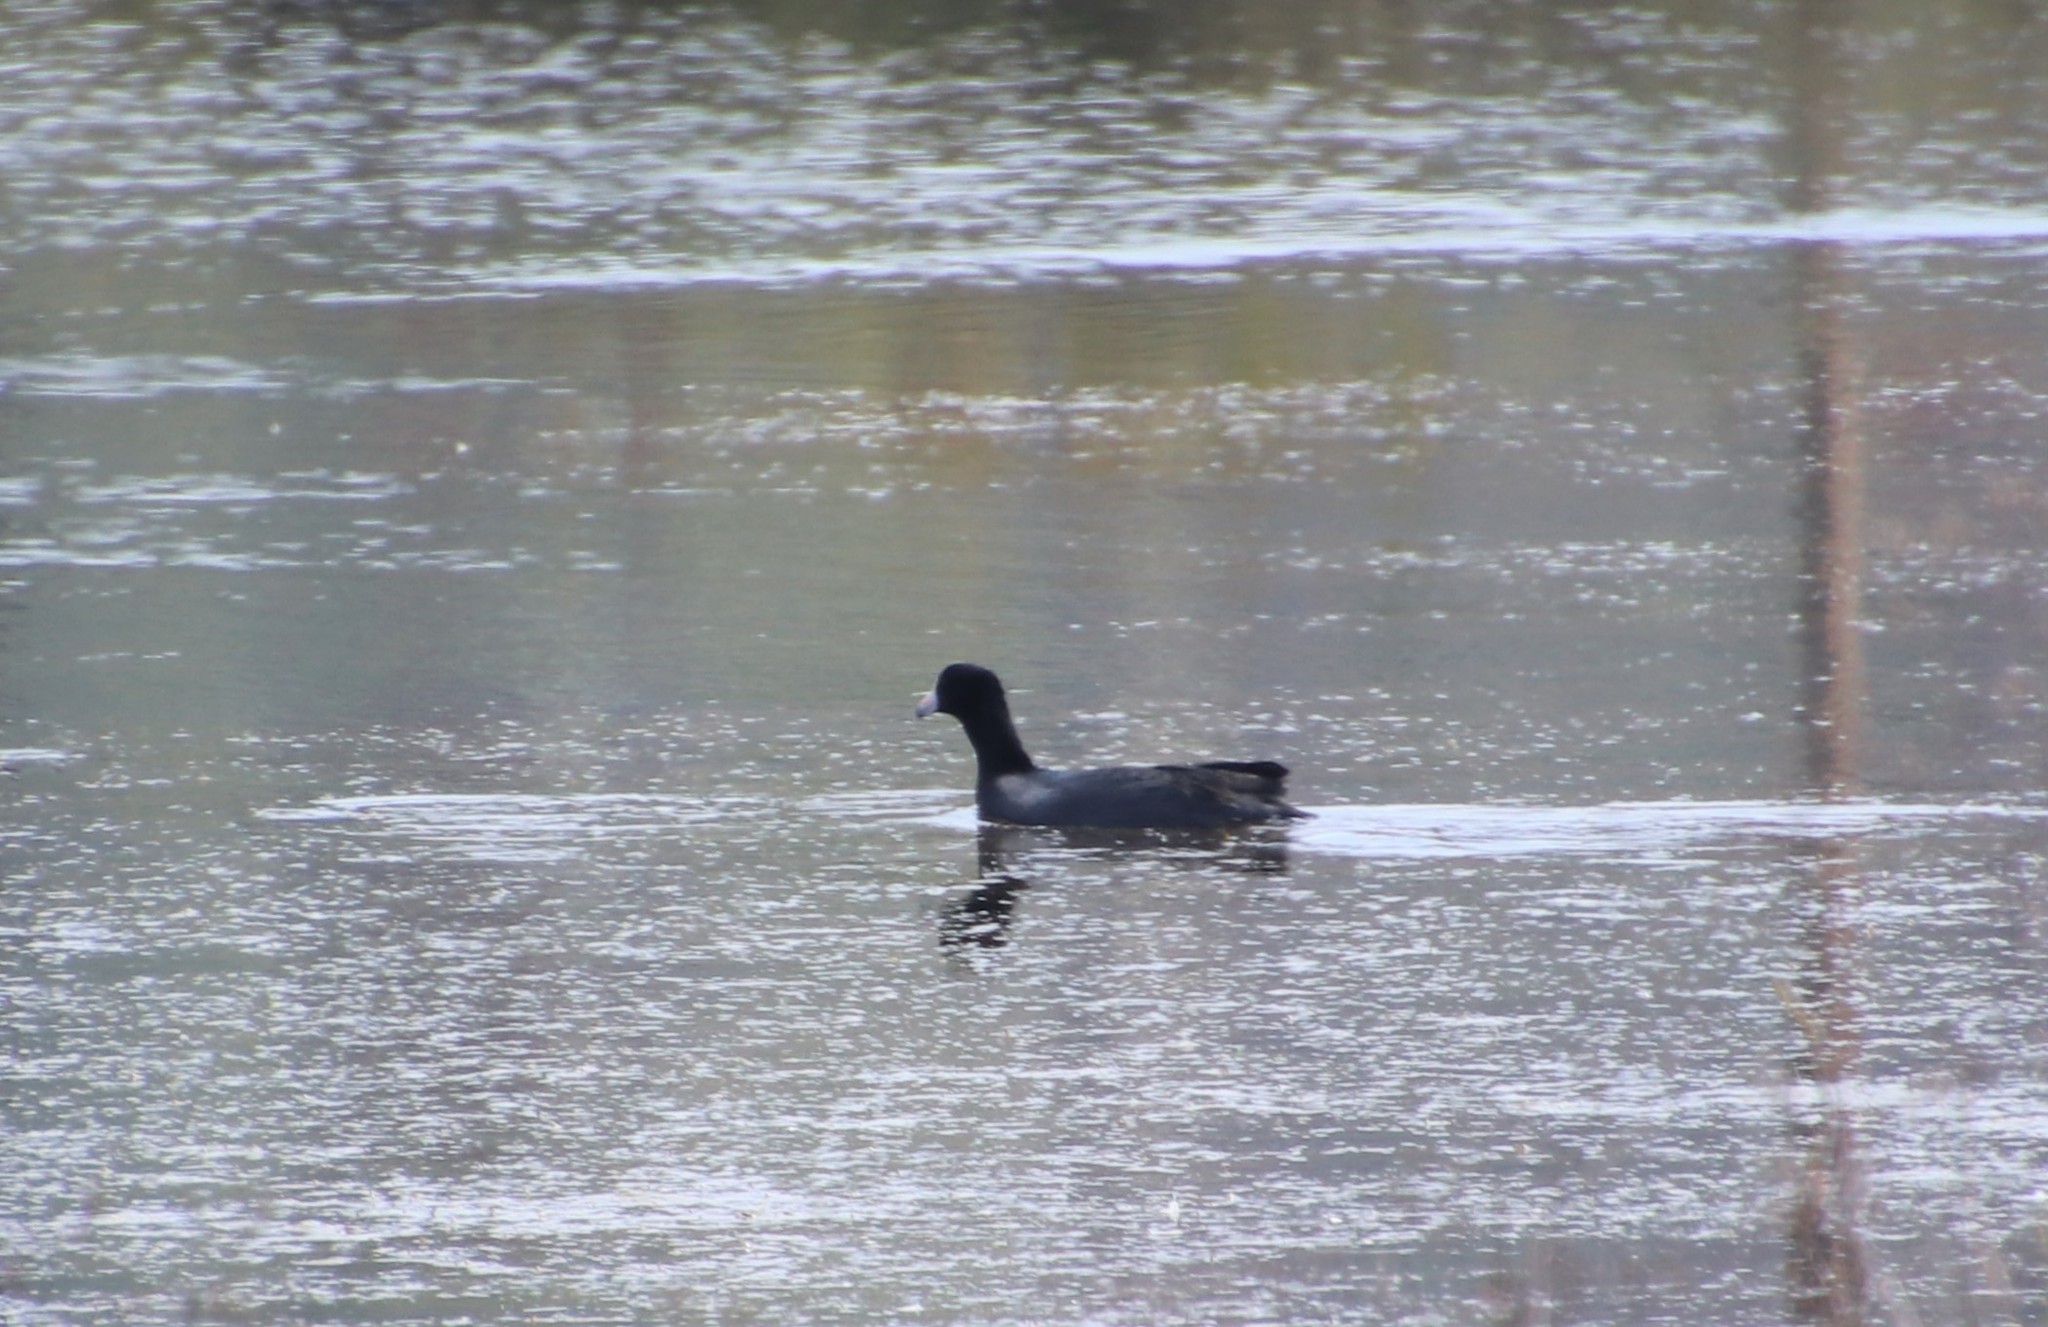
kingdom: Animalia
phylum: Chordata
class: Aves
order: Gruiformes
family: Rallidae
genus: Fulica
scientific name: Fulica americana
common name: American coot
